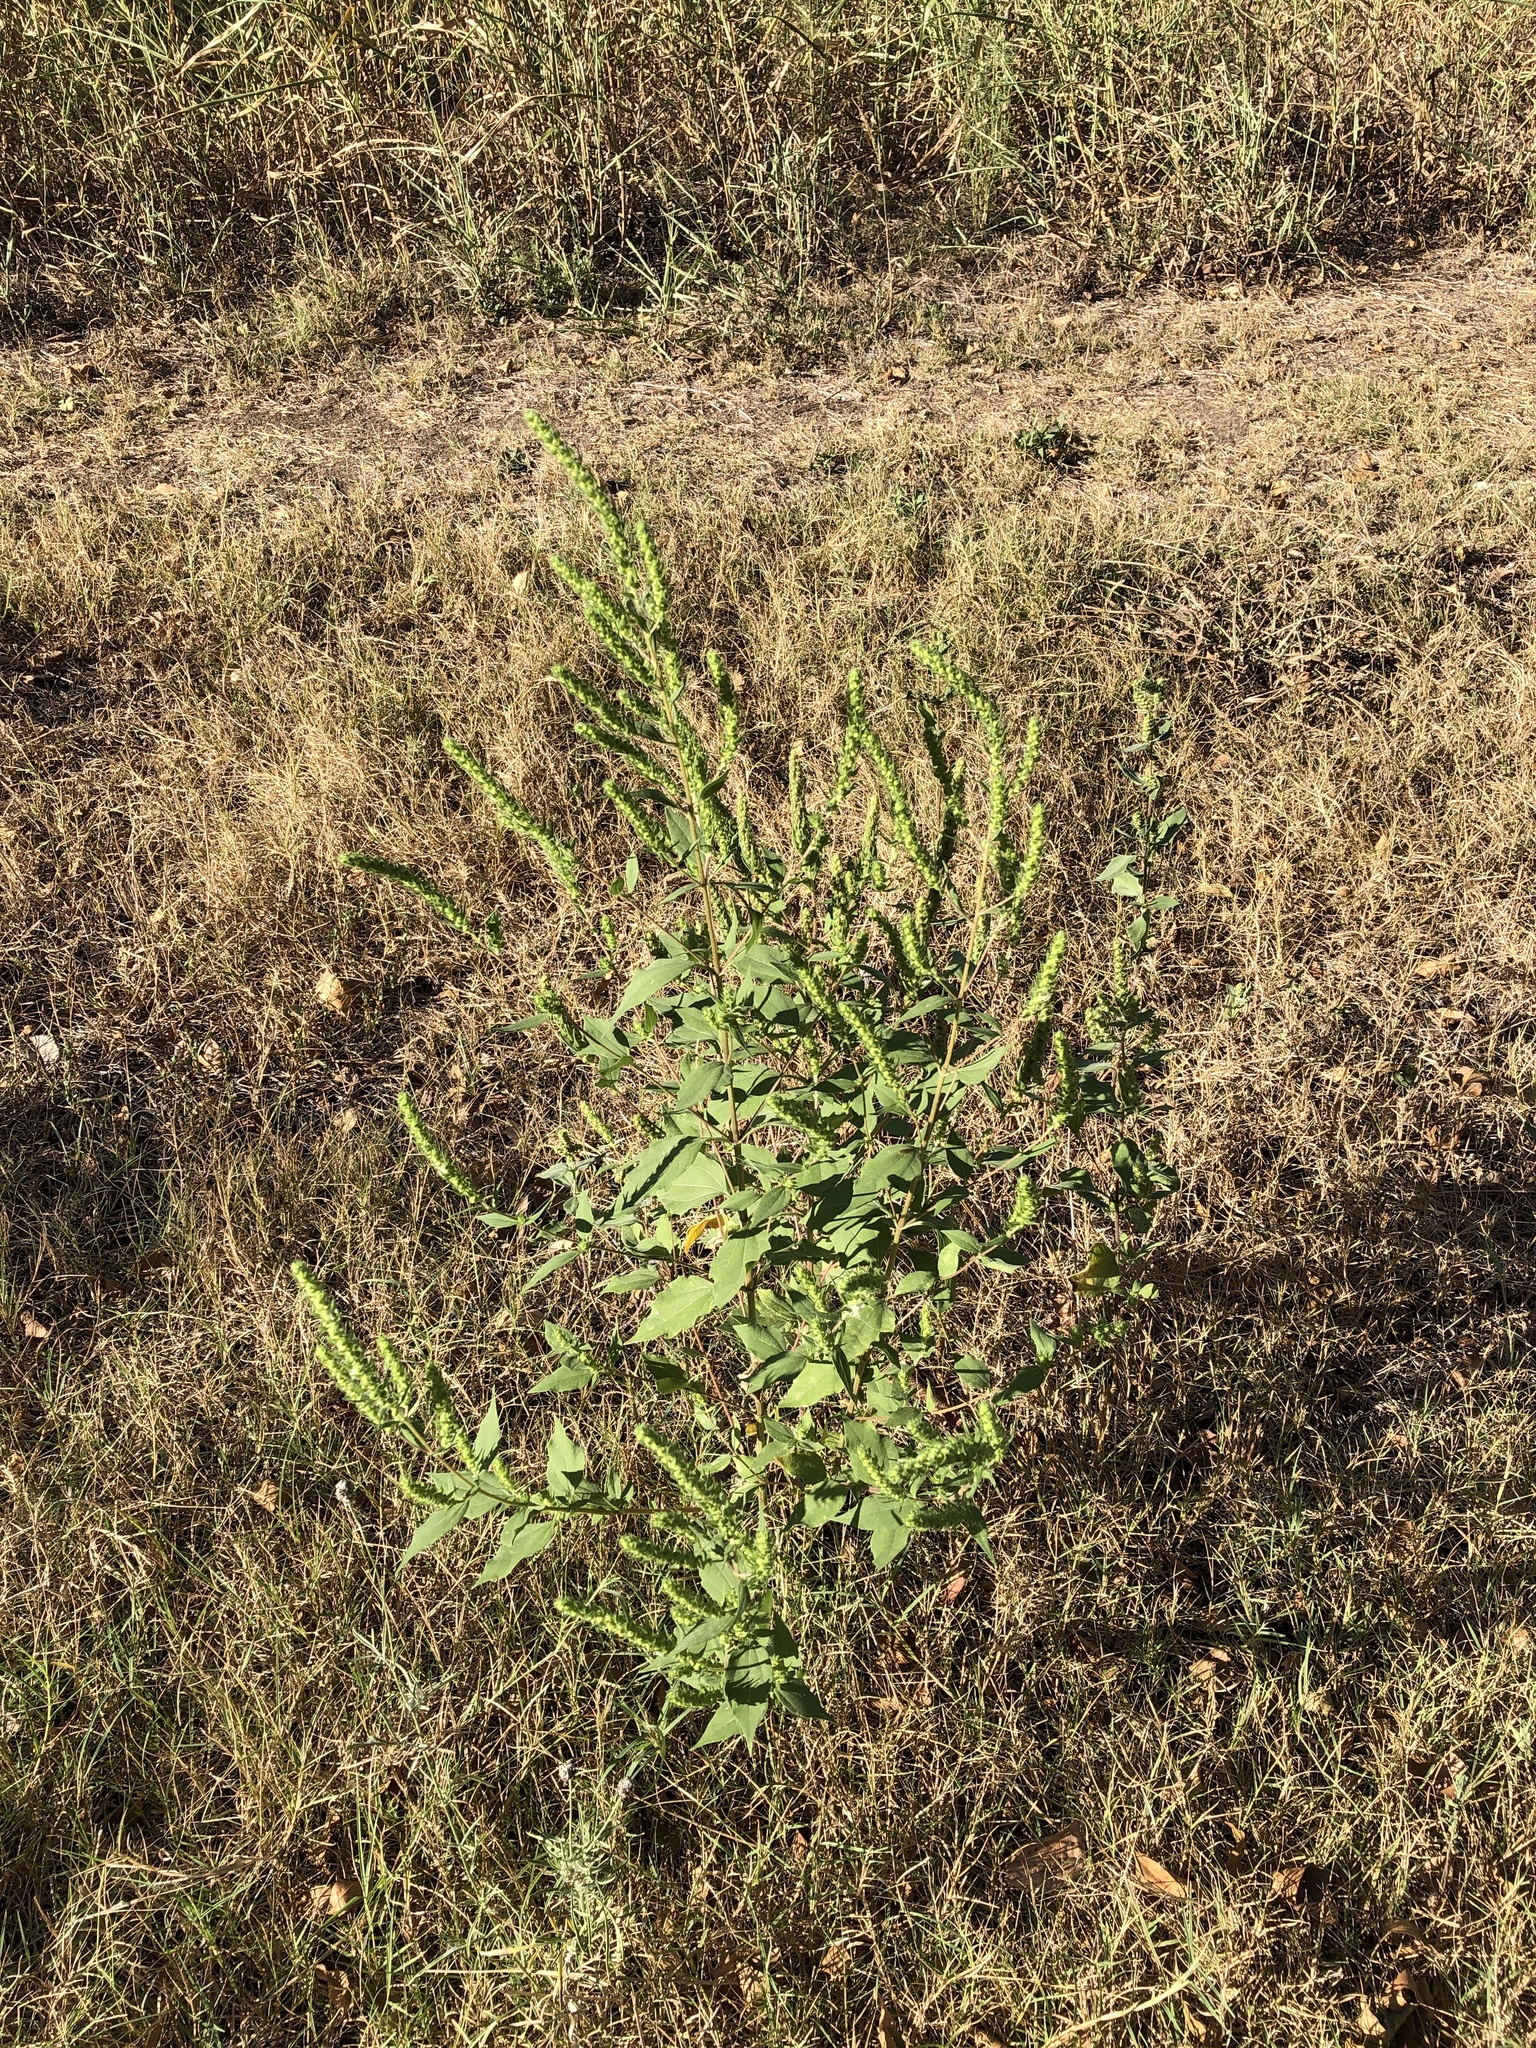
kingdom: Plantae
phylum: Tracheophyta
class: Magnoliopsida
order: Asterales
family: Asteraceae
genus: Iva
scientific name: Iva annua
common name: Marsh-elder
